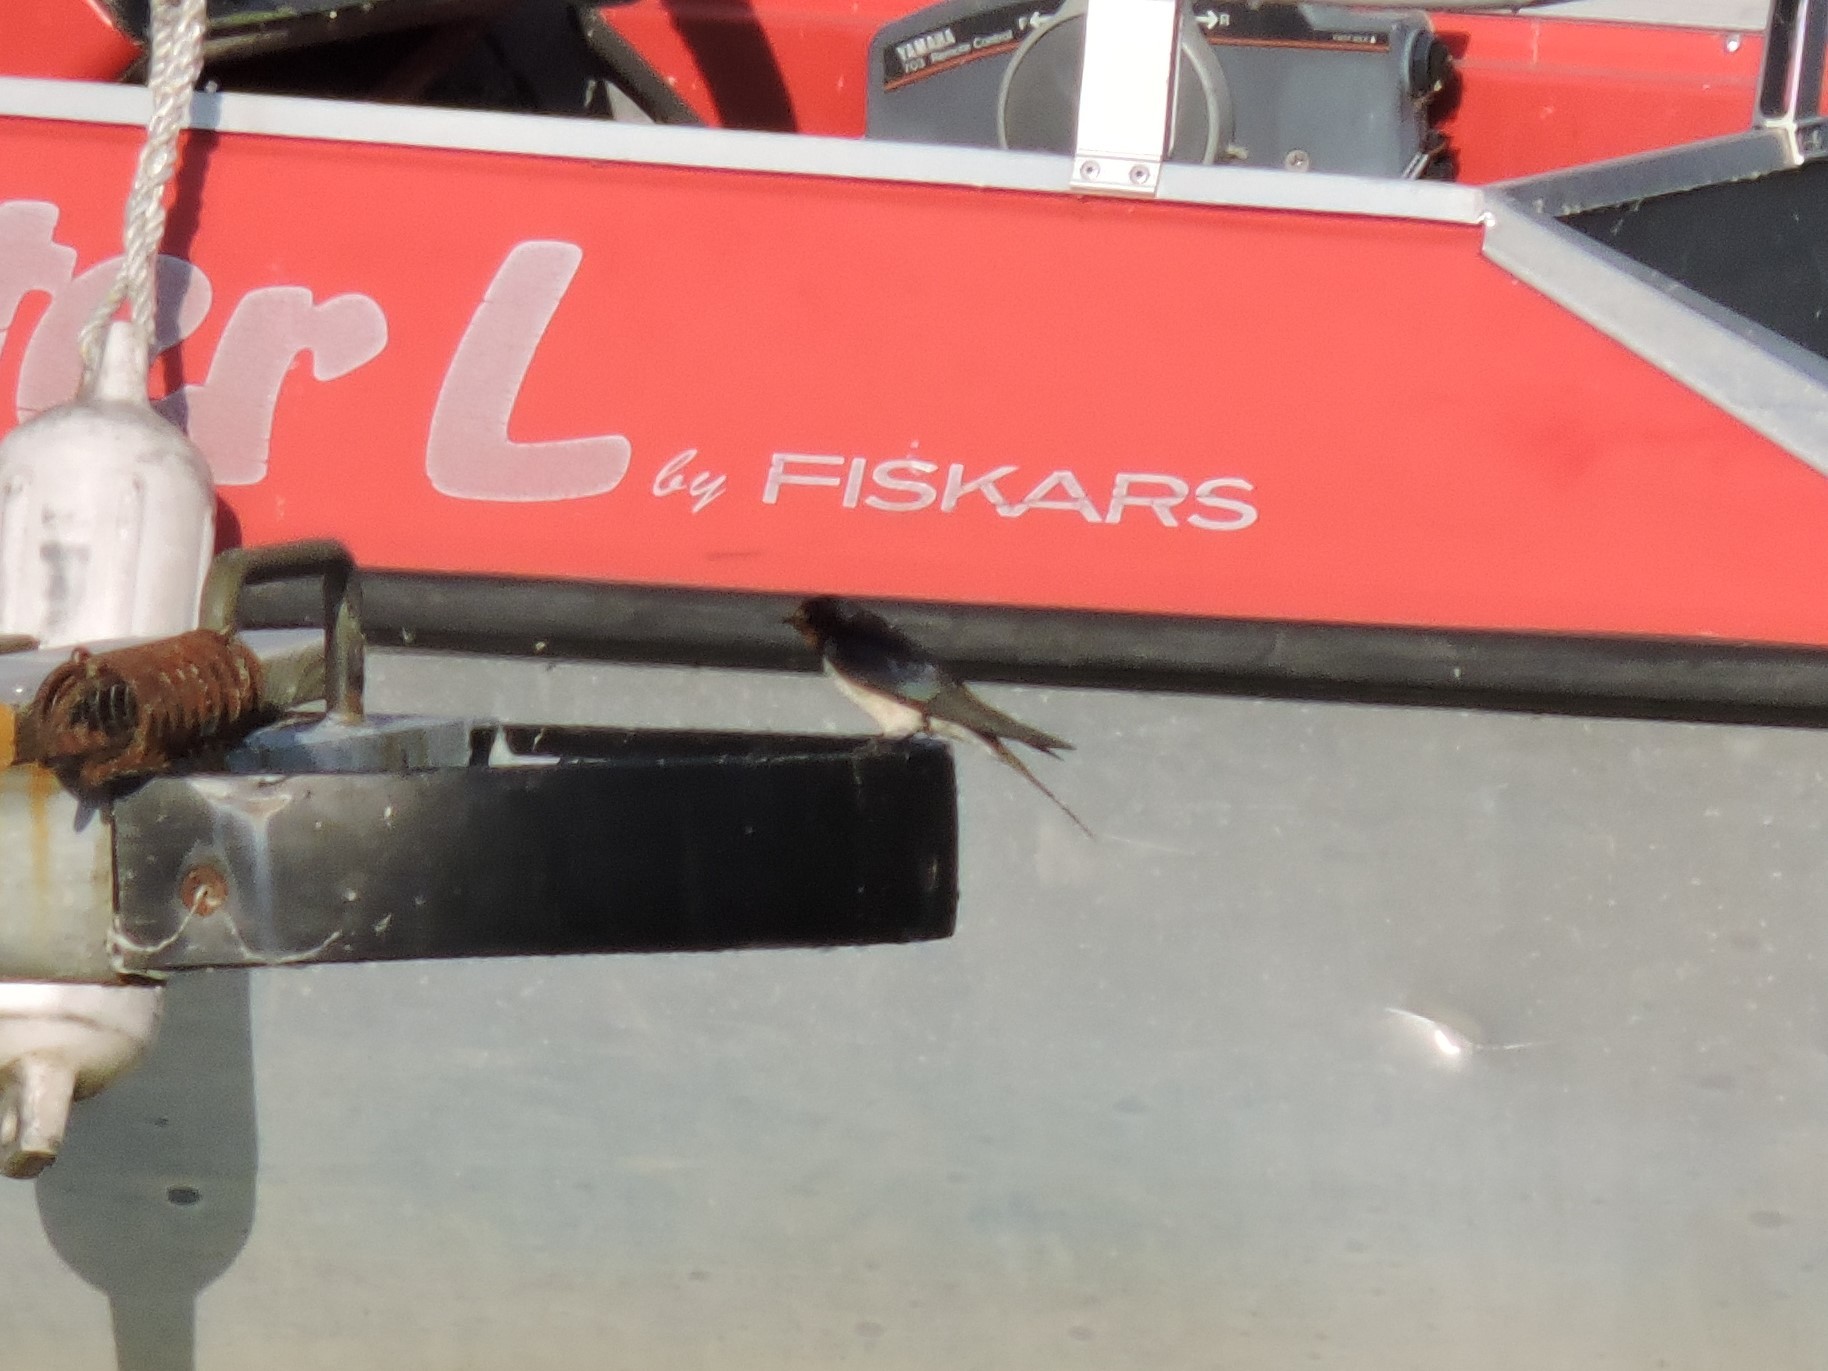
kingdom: Animalia
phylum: Chordata
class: Aves
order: Passeriformes
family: Hirundinidae
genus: Hirundo
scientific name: Hirundo rustica
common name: Barn swallow
